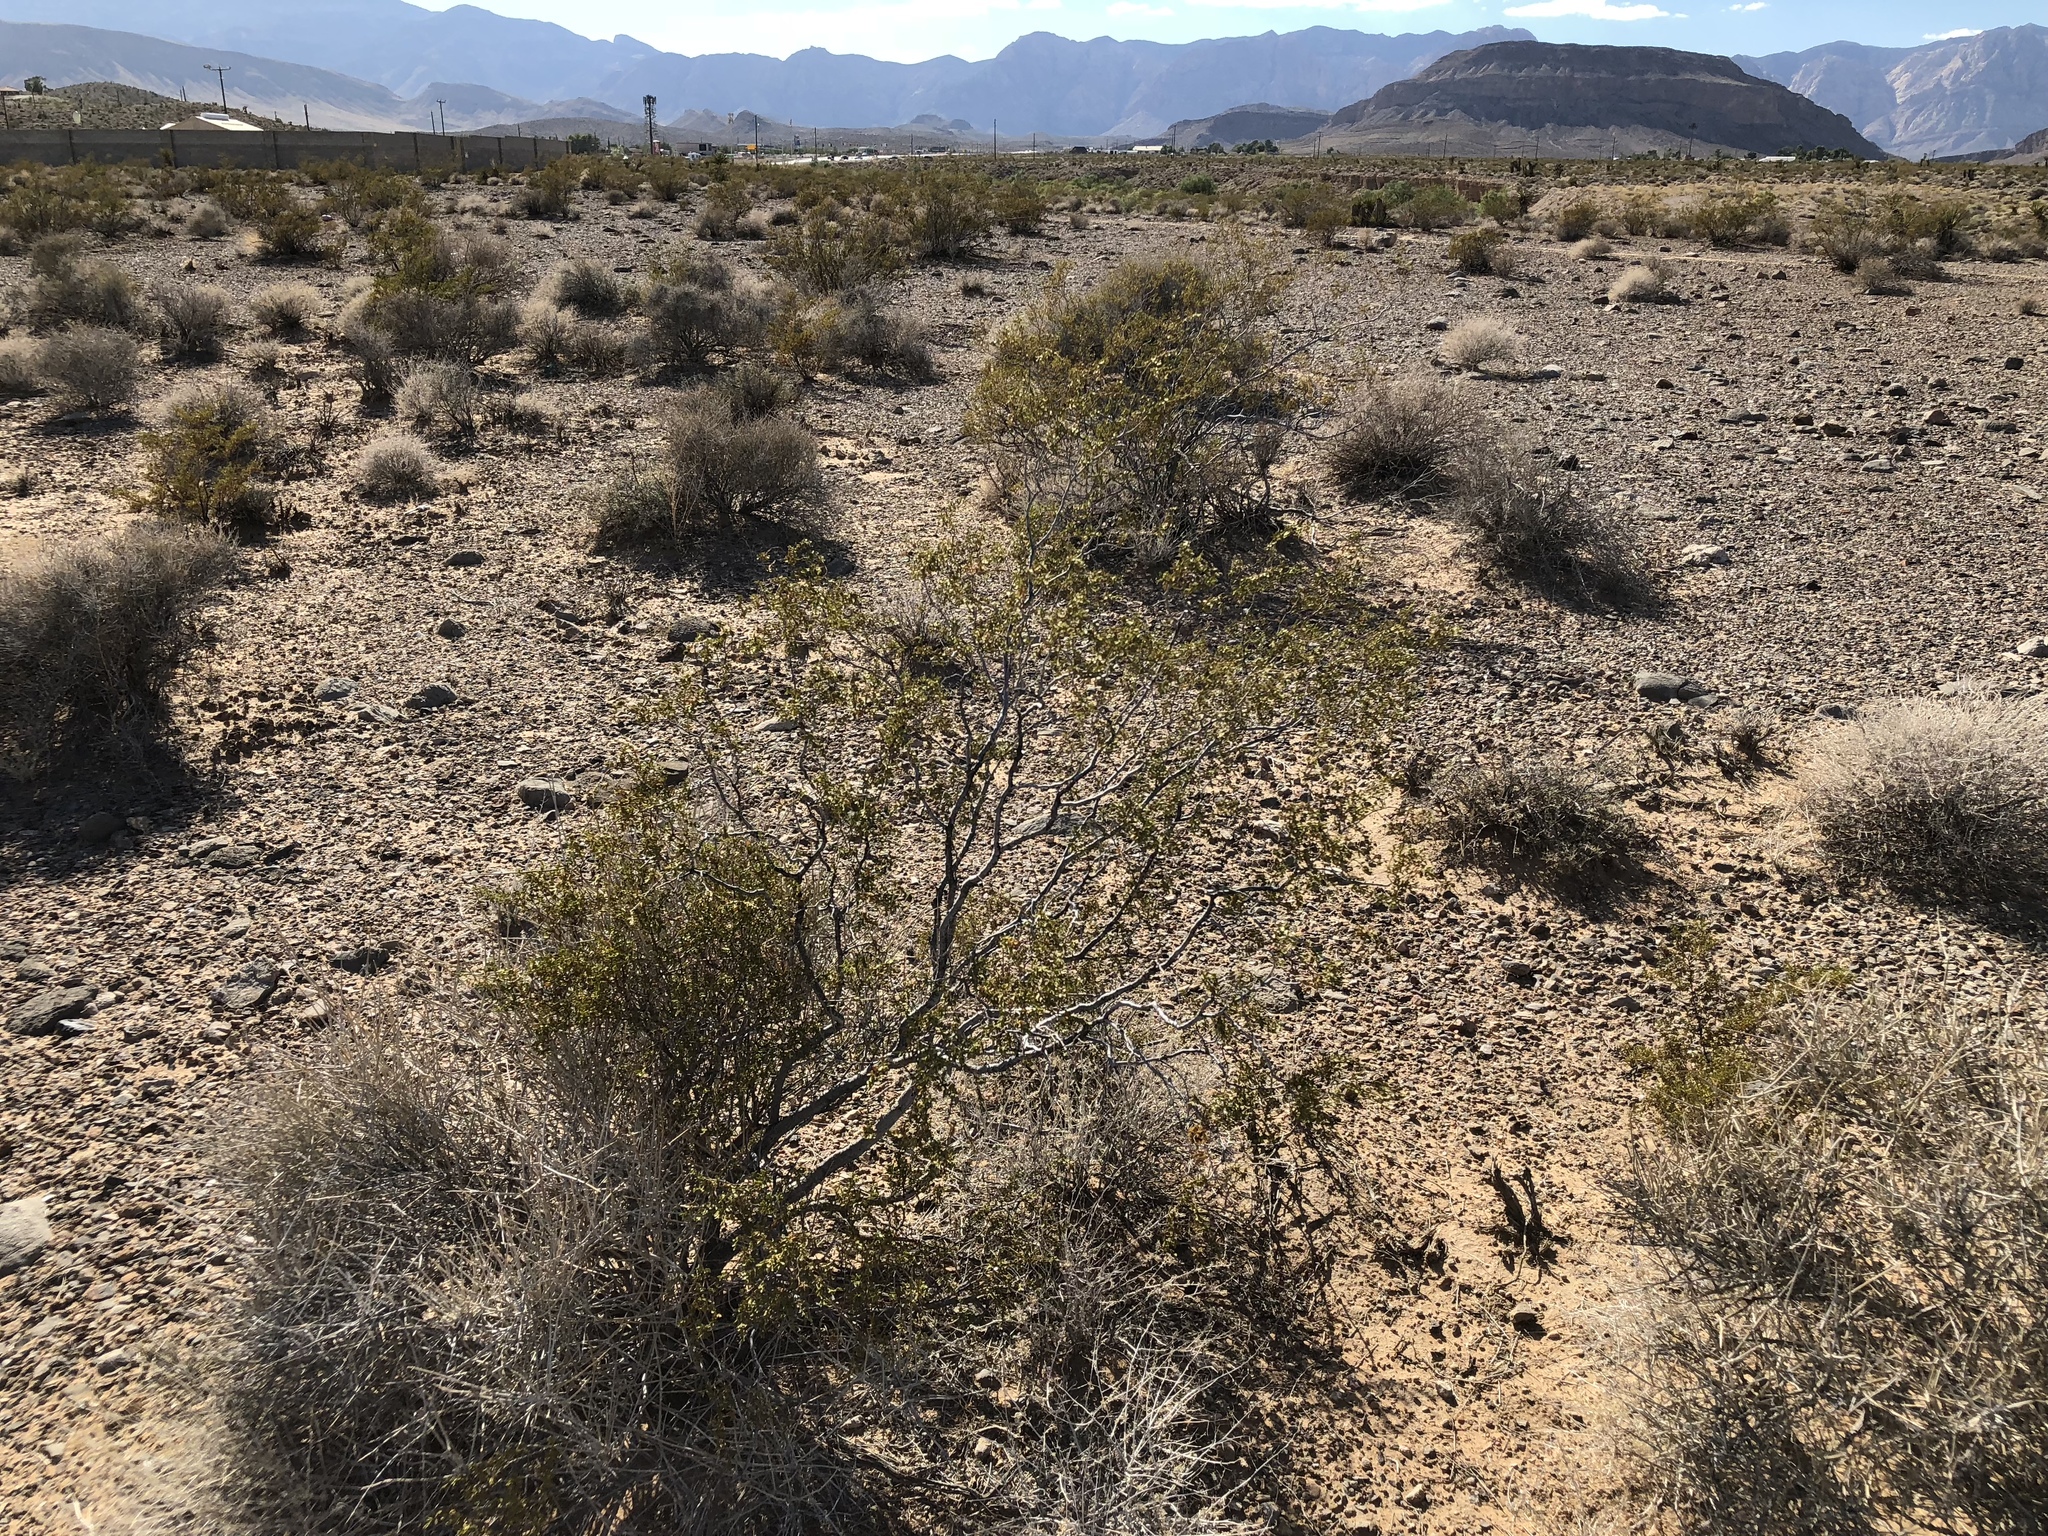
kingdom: Plantae
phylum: Tracheophyta
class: Magnoliopsida
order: Zygophyllales
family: Zygophyllaceae
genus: Larrea
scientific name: Larrea tridentata
